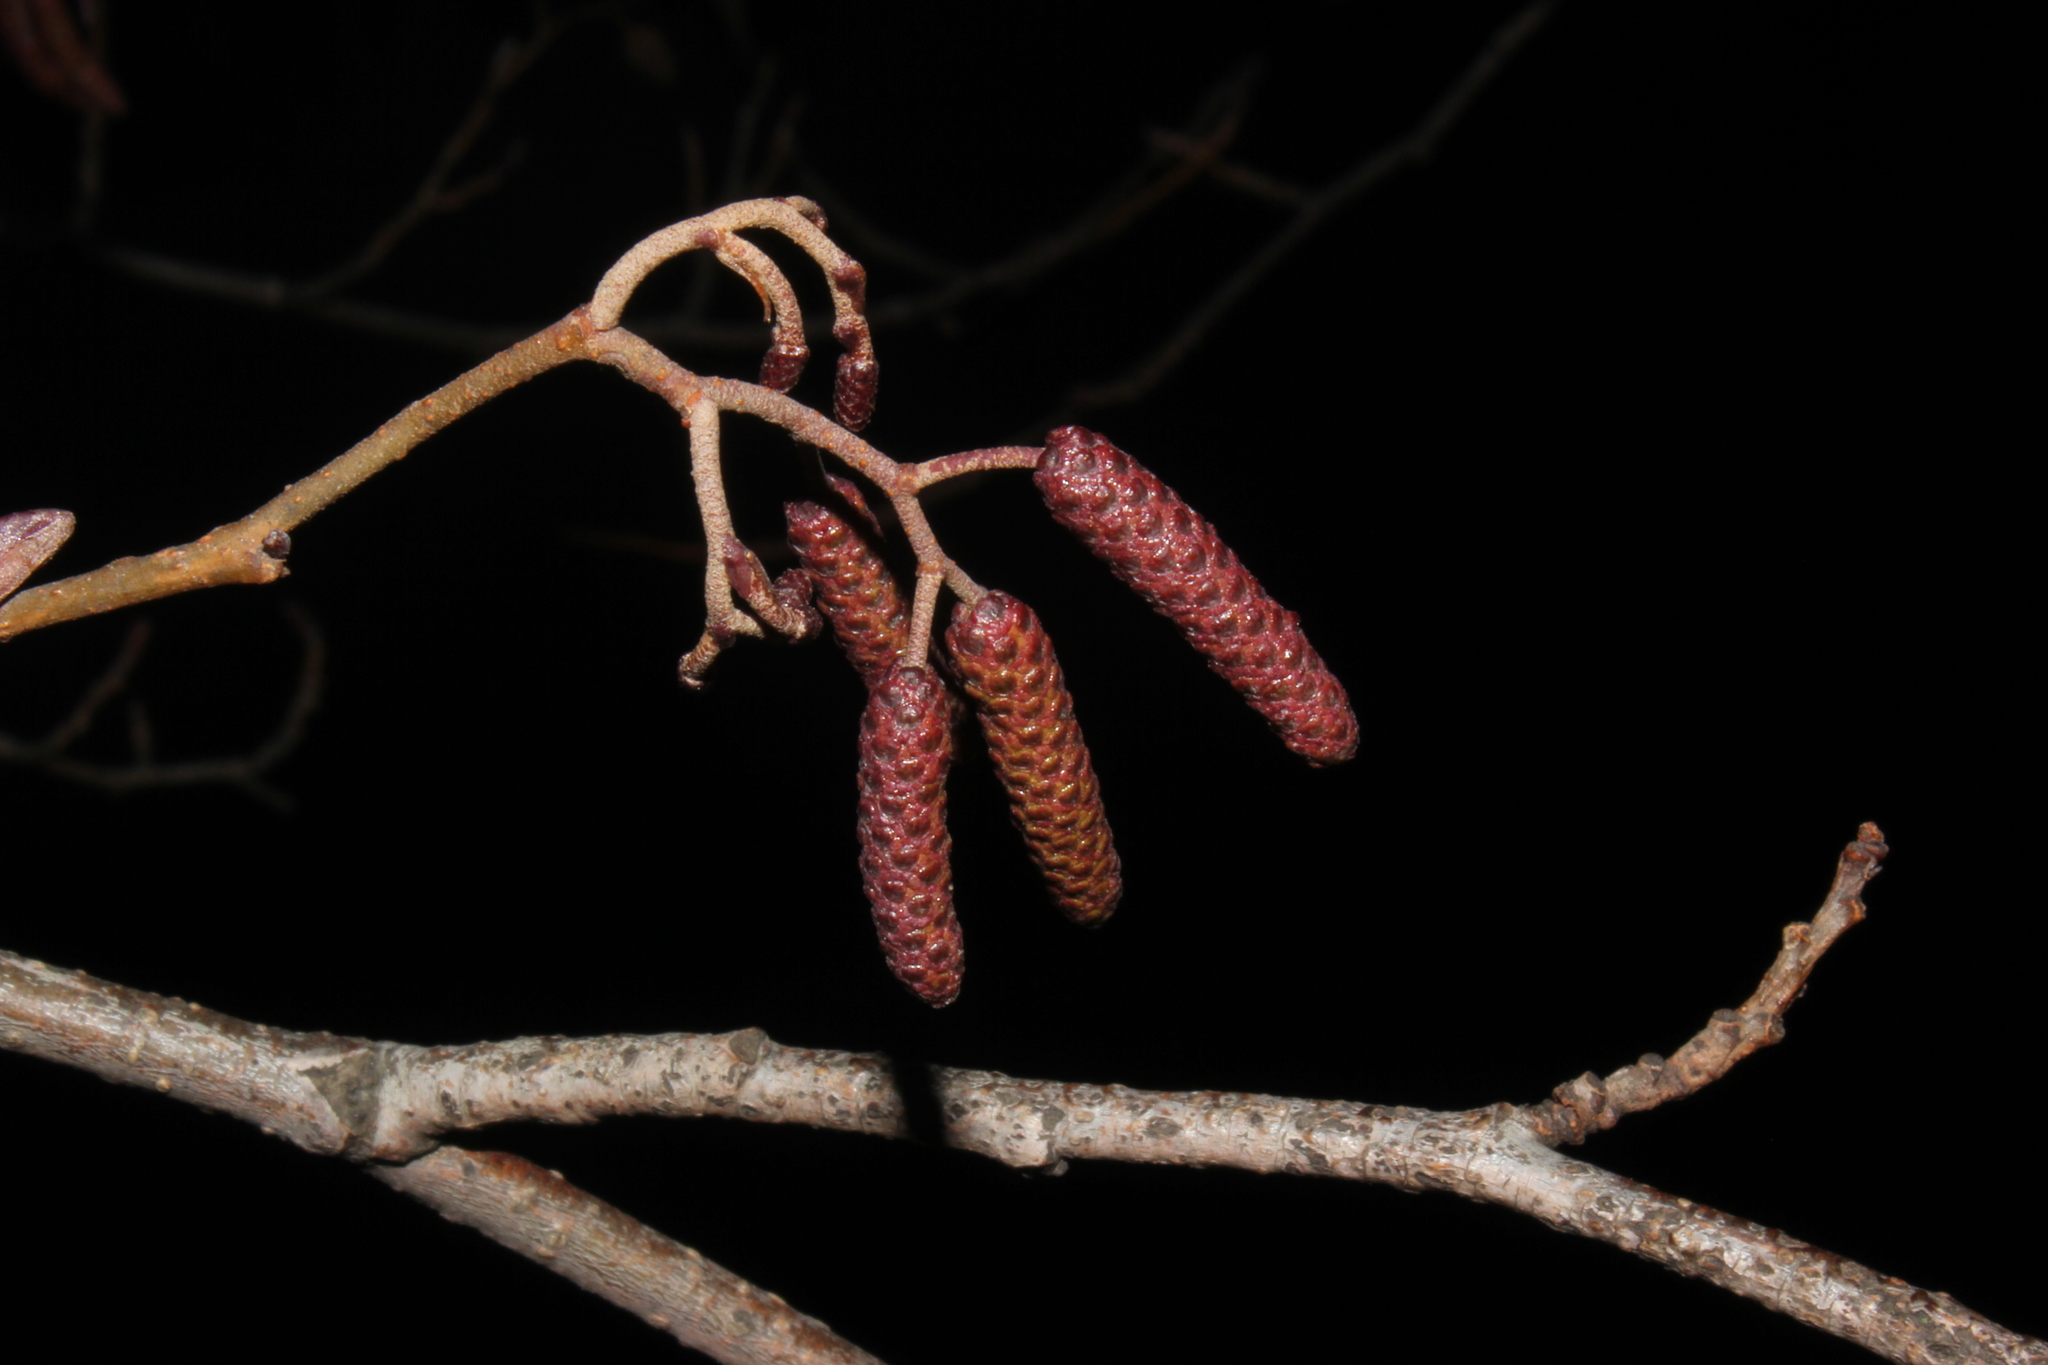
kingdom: Plantae
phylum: Tracheophyta
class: Magnoliopsida
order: Fagales
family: Betulaceae
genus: Alnus
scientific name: Alnus glutinosa
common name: Black alder
